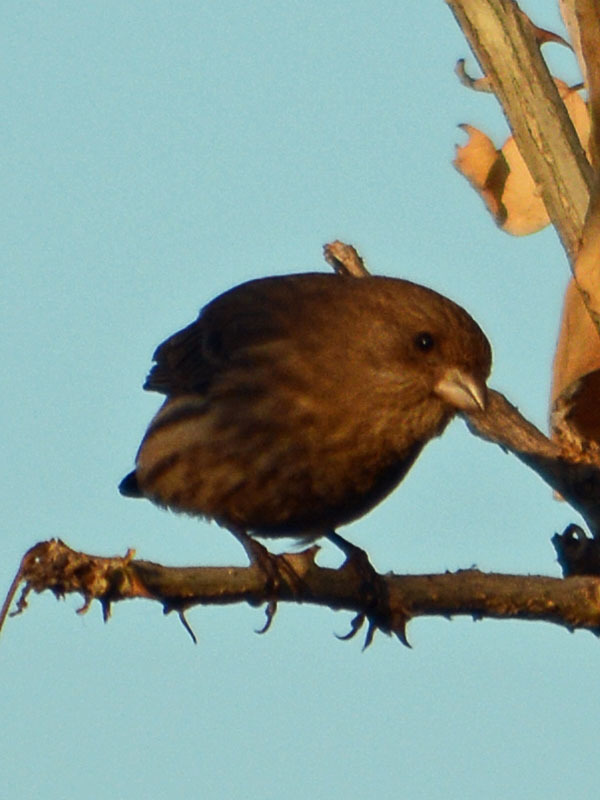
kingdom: Animalia
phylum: Chordata
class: Aves
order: Passeriformes
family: Fringillidae
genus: Haemorhous
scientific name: Haemorhous mexicanus
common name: House finch
